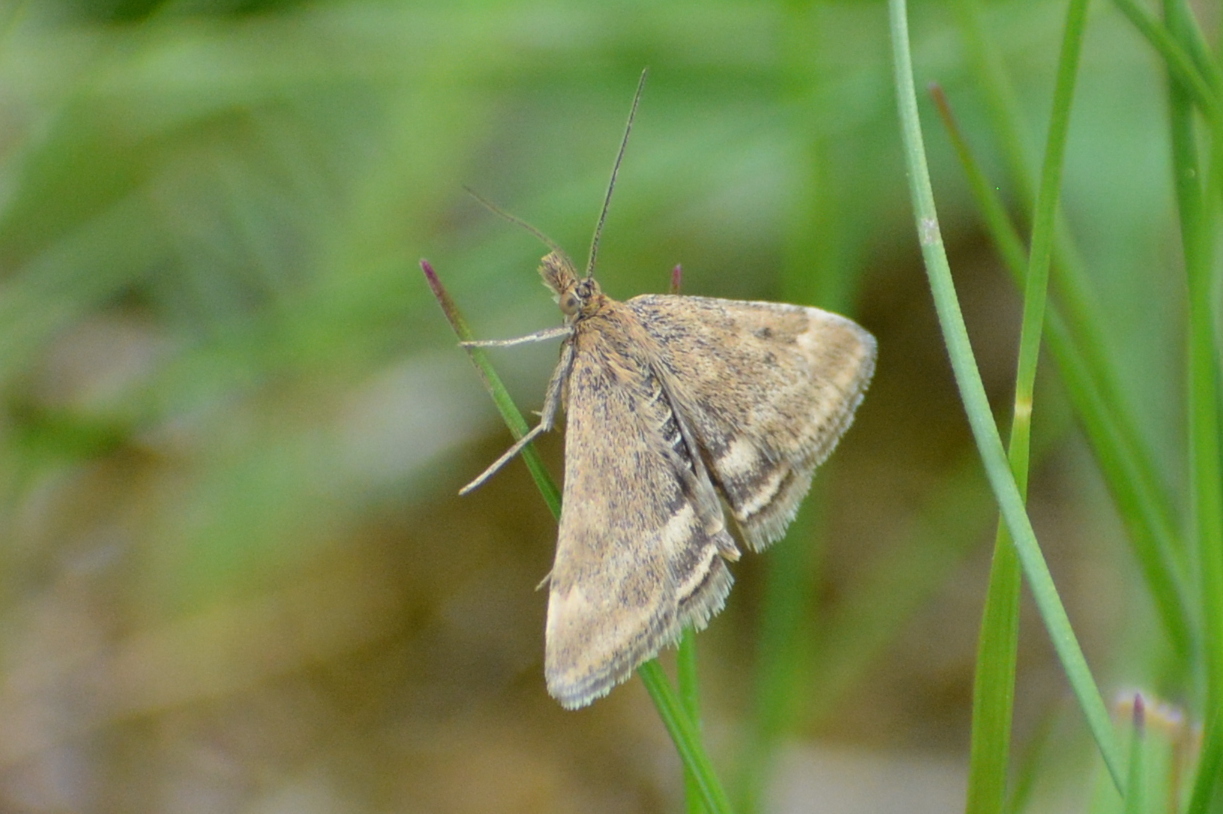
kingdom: Animalia
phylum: Arthropoda
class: Insecta
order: Lepidoptera
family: Crambidae
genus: Pyrausta
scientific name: Pyrausta despicata
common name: Straw-barred pearl
